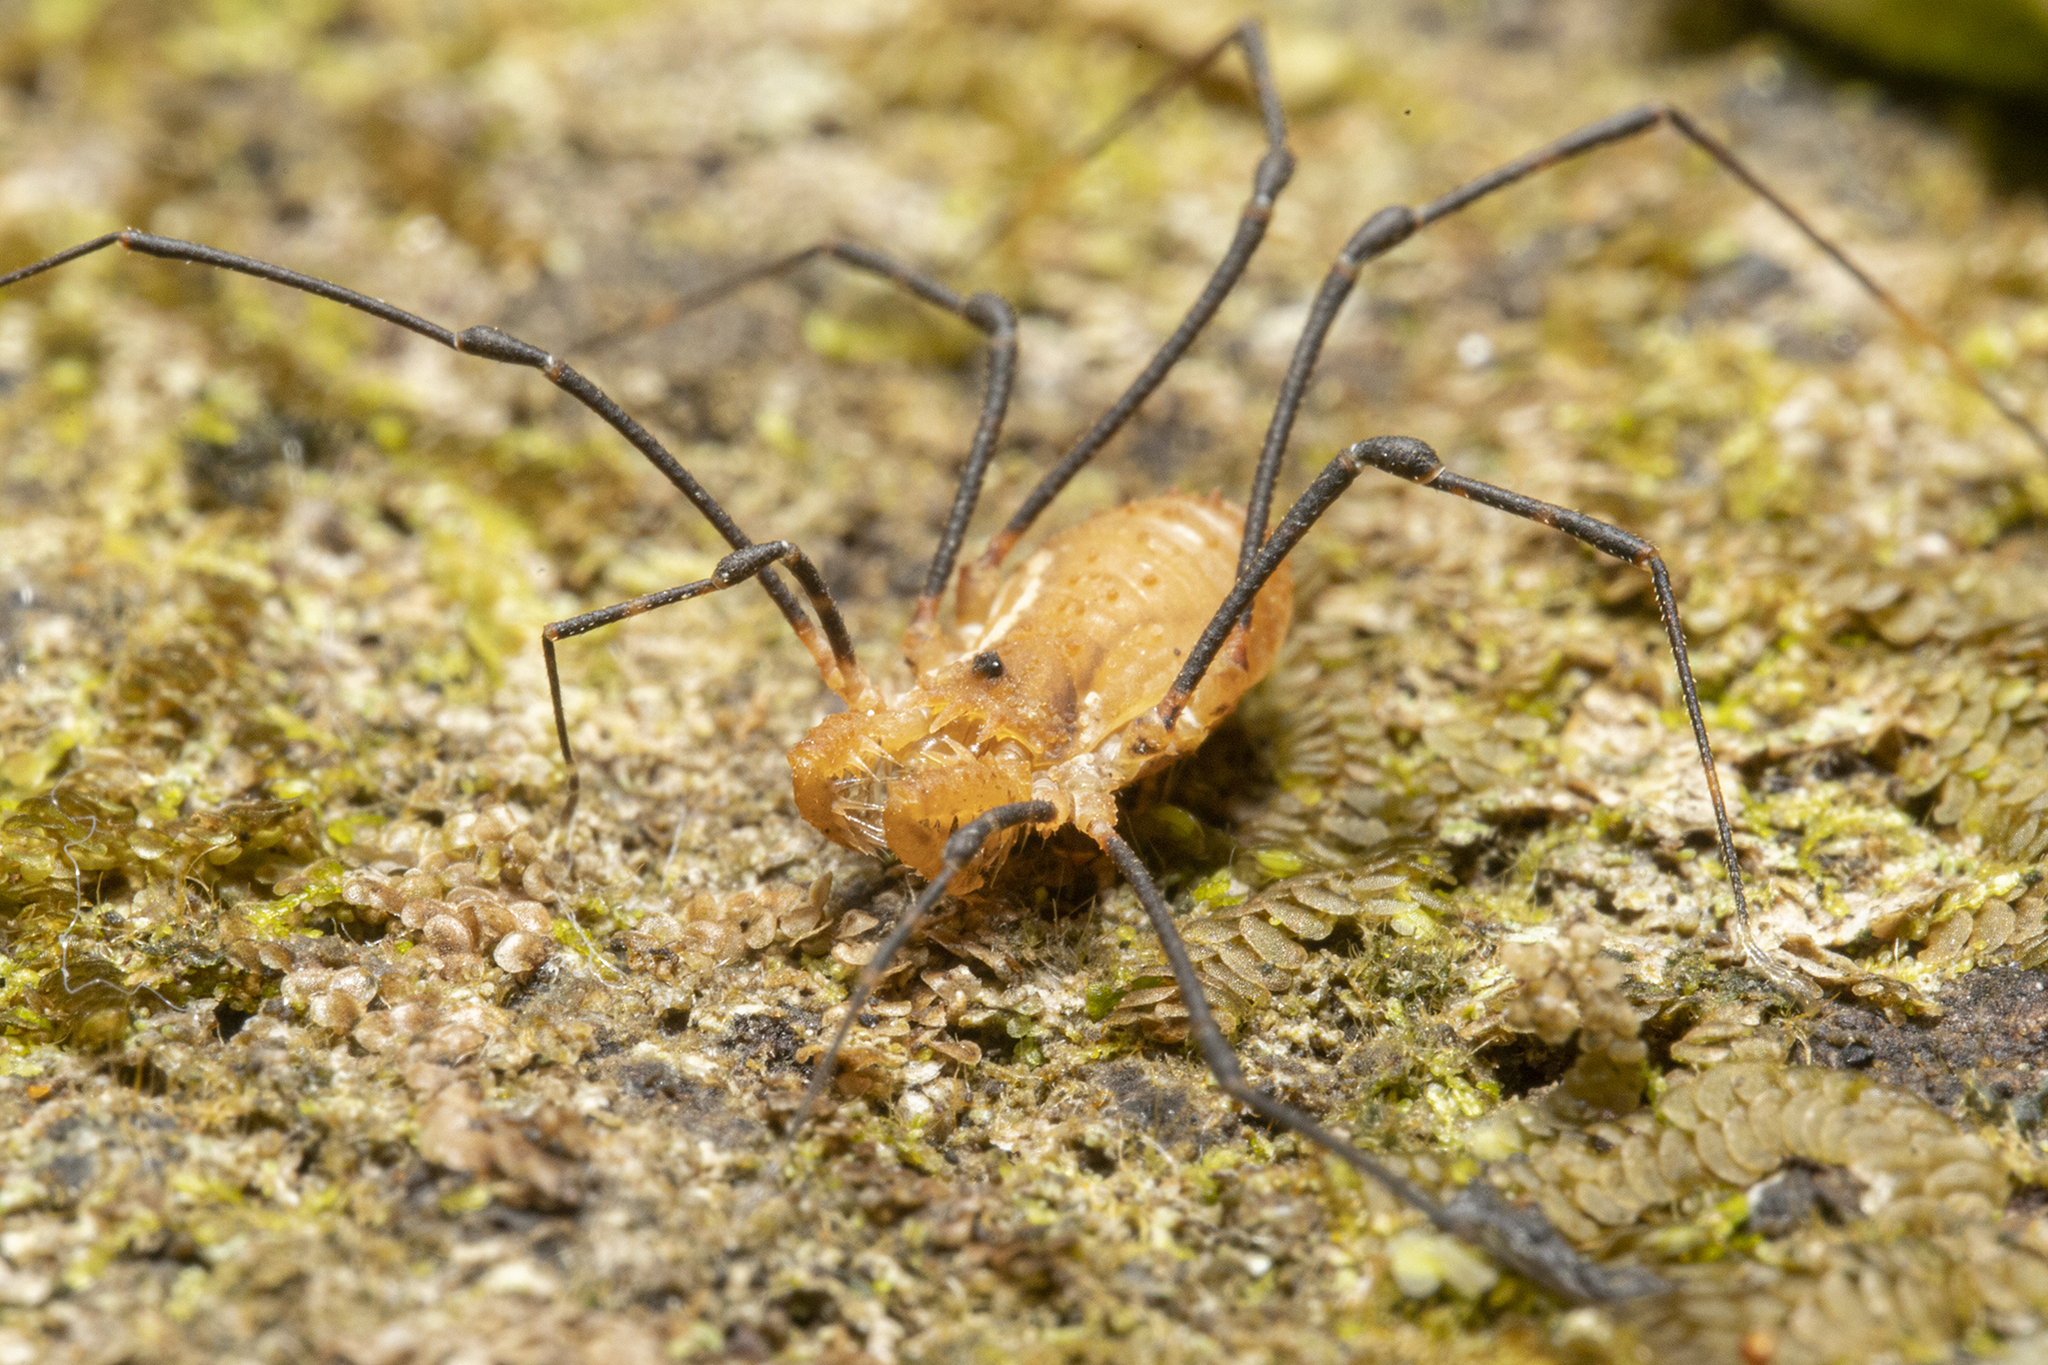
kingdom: Animalia
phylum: Arthropoda
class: Arachnida
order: Opiliones
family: Triaenonychidae
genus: Algidia
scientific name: Algidia interrupta
